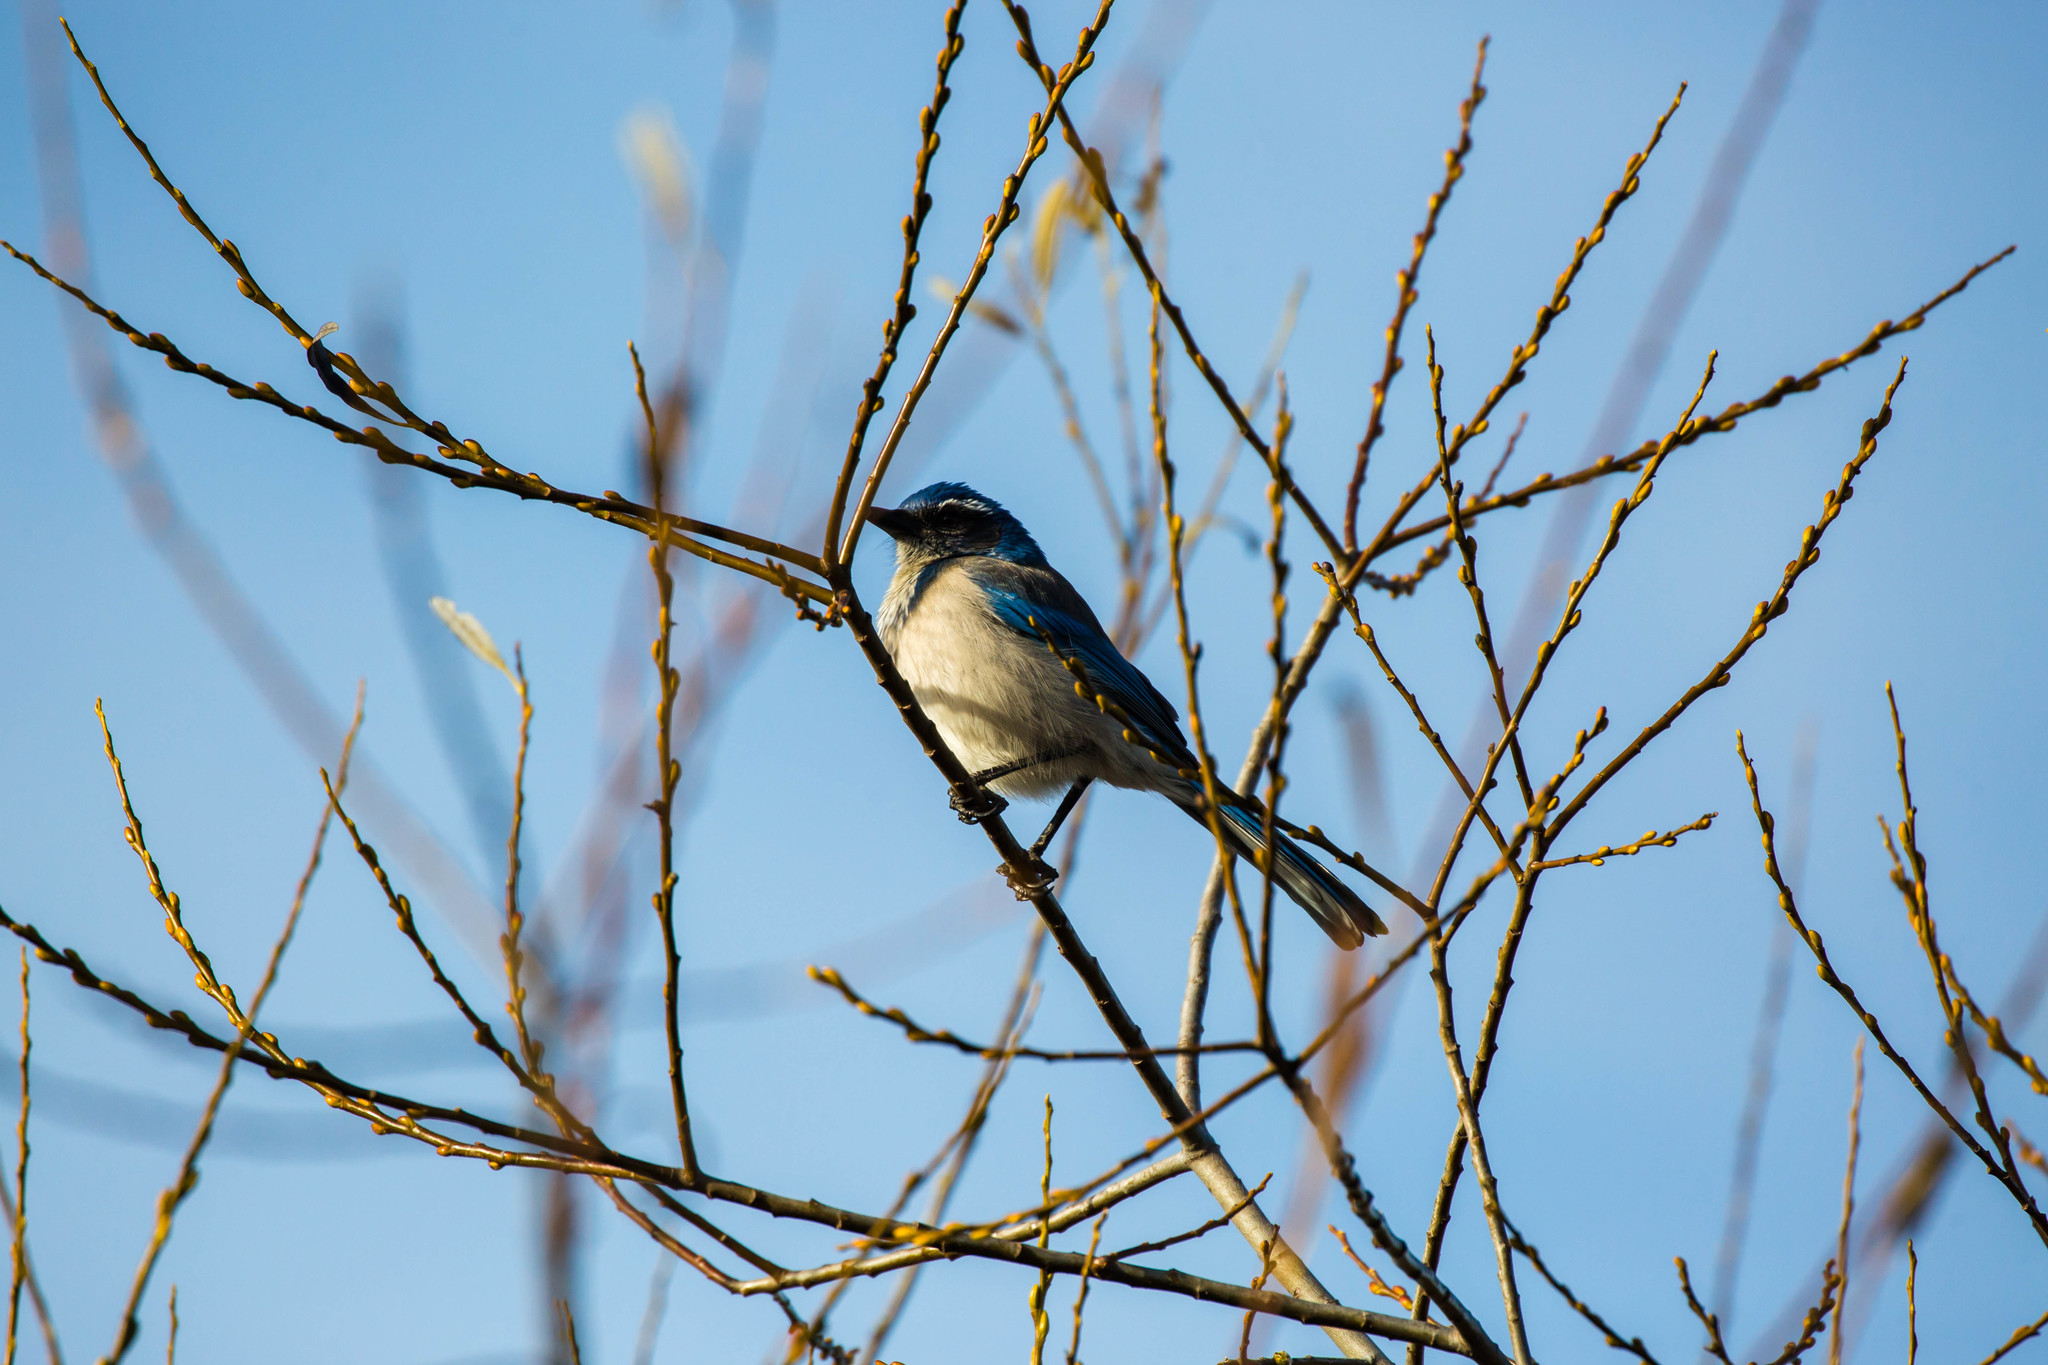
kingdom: Animalia
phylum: Chordata
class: Aves
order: Passeriformes
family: Corvidae
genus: Aphelocoma
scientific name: Aphelocoma californica
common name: California scrub-jay
